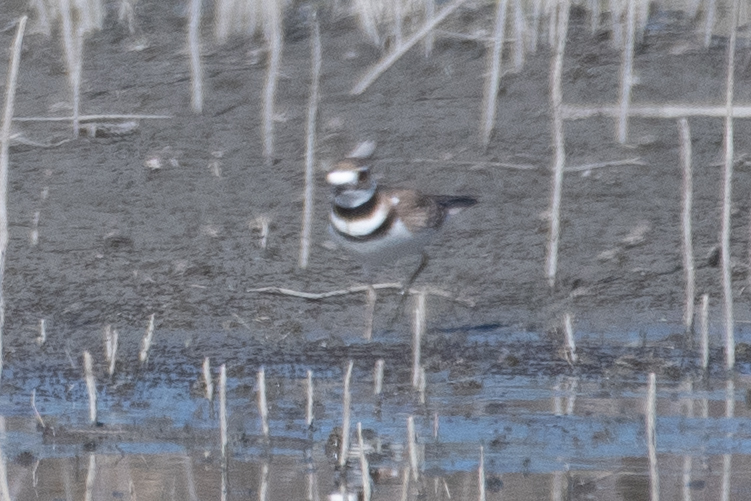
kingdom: Animalia
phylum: Chordata
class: Aves
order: Charadriiformes
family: Charadriidae
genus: Charadrius
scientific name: Charadrius vociferus
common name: Killdeer
